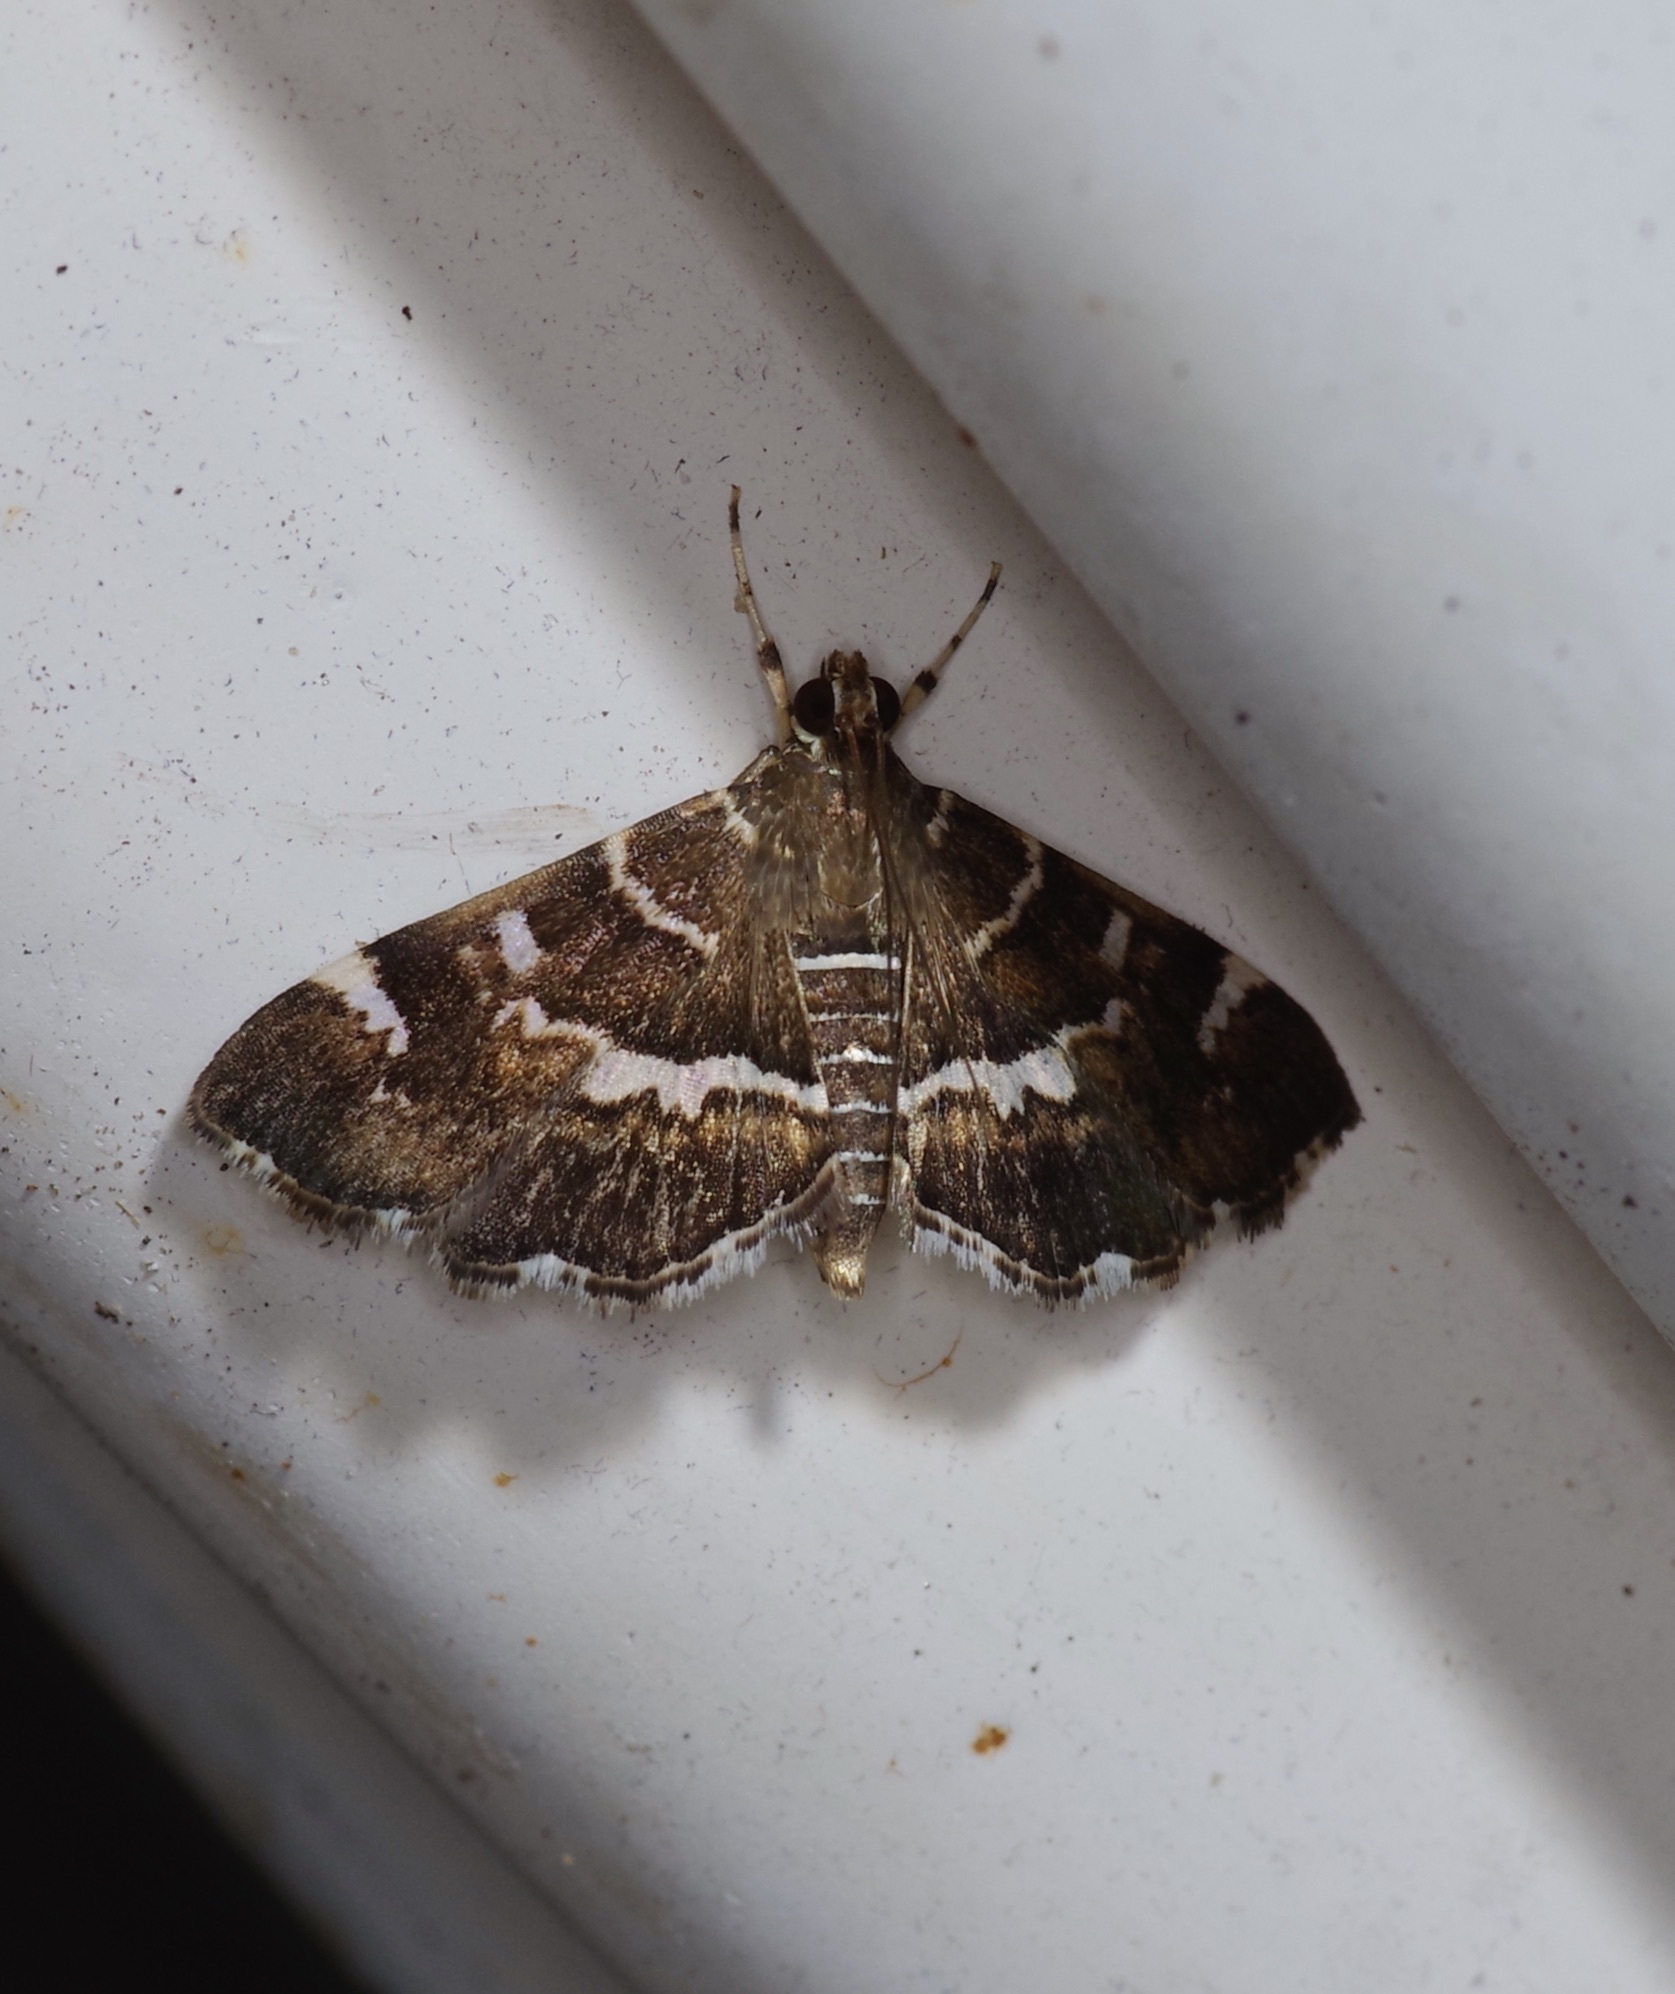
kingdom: Animalia
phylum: Arthropoda
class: Insecta
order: Lepidoptera
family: Crambidae
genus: Hymenia
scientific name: Hymenia perspectalis
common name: Spotted beet webworm
